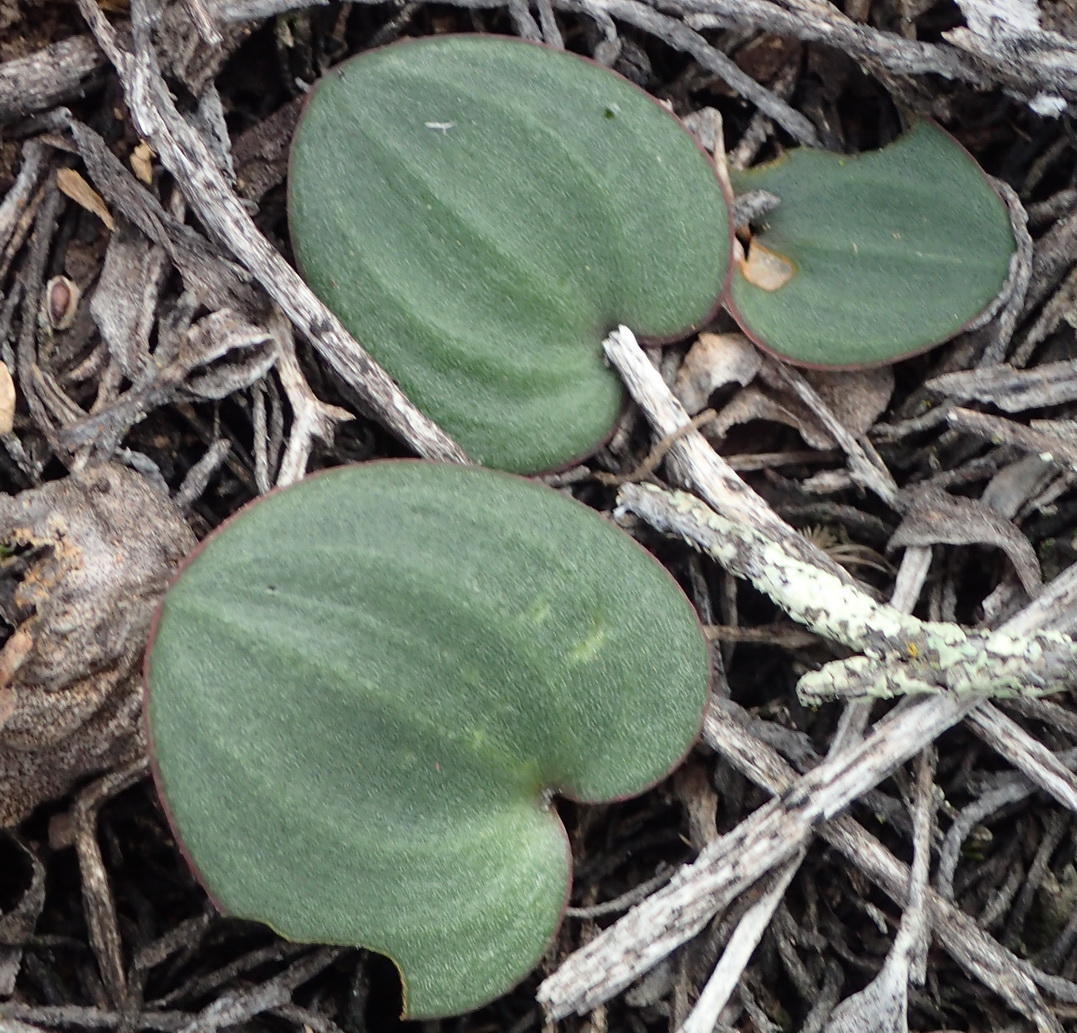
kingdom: Plantae
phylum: Tracheophyta
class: Liliopsida
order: Asparagales
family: Asparagaceae
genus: Eriospermum
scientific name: Eriospermum capense
